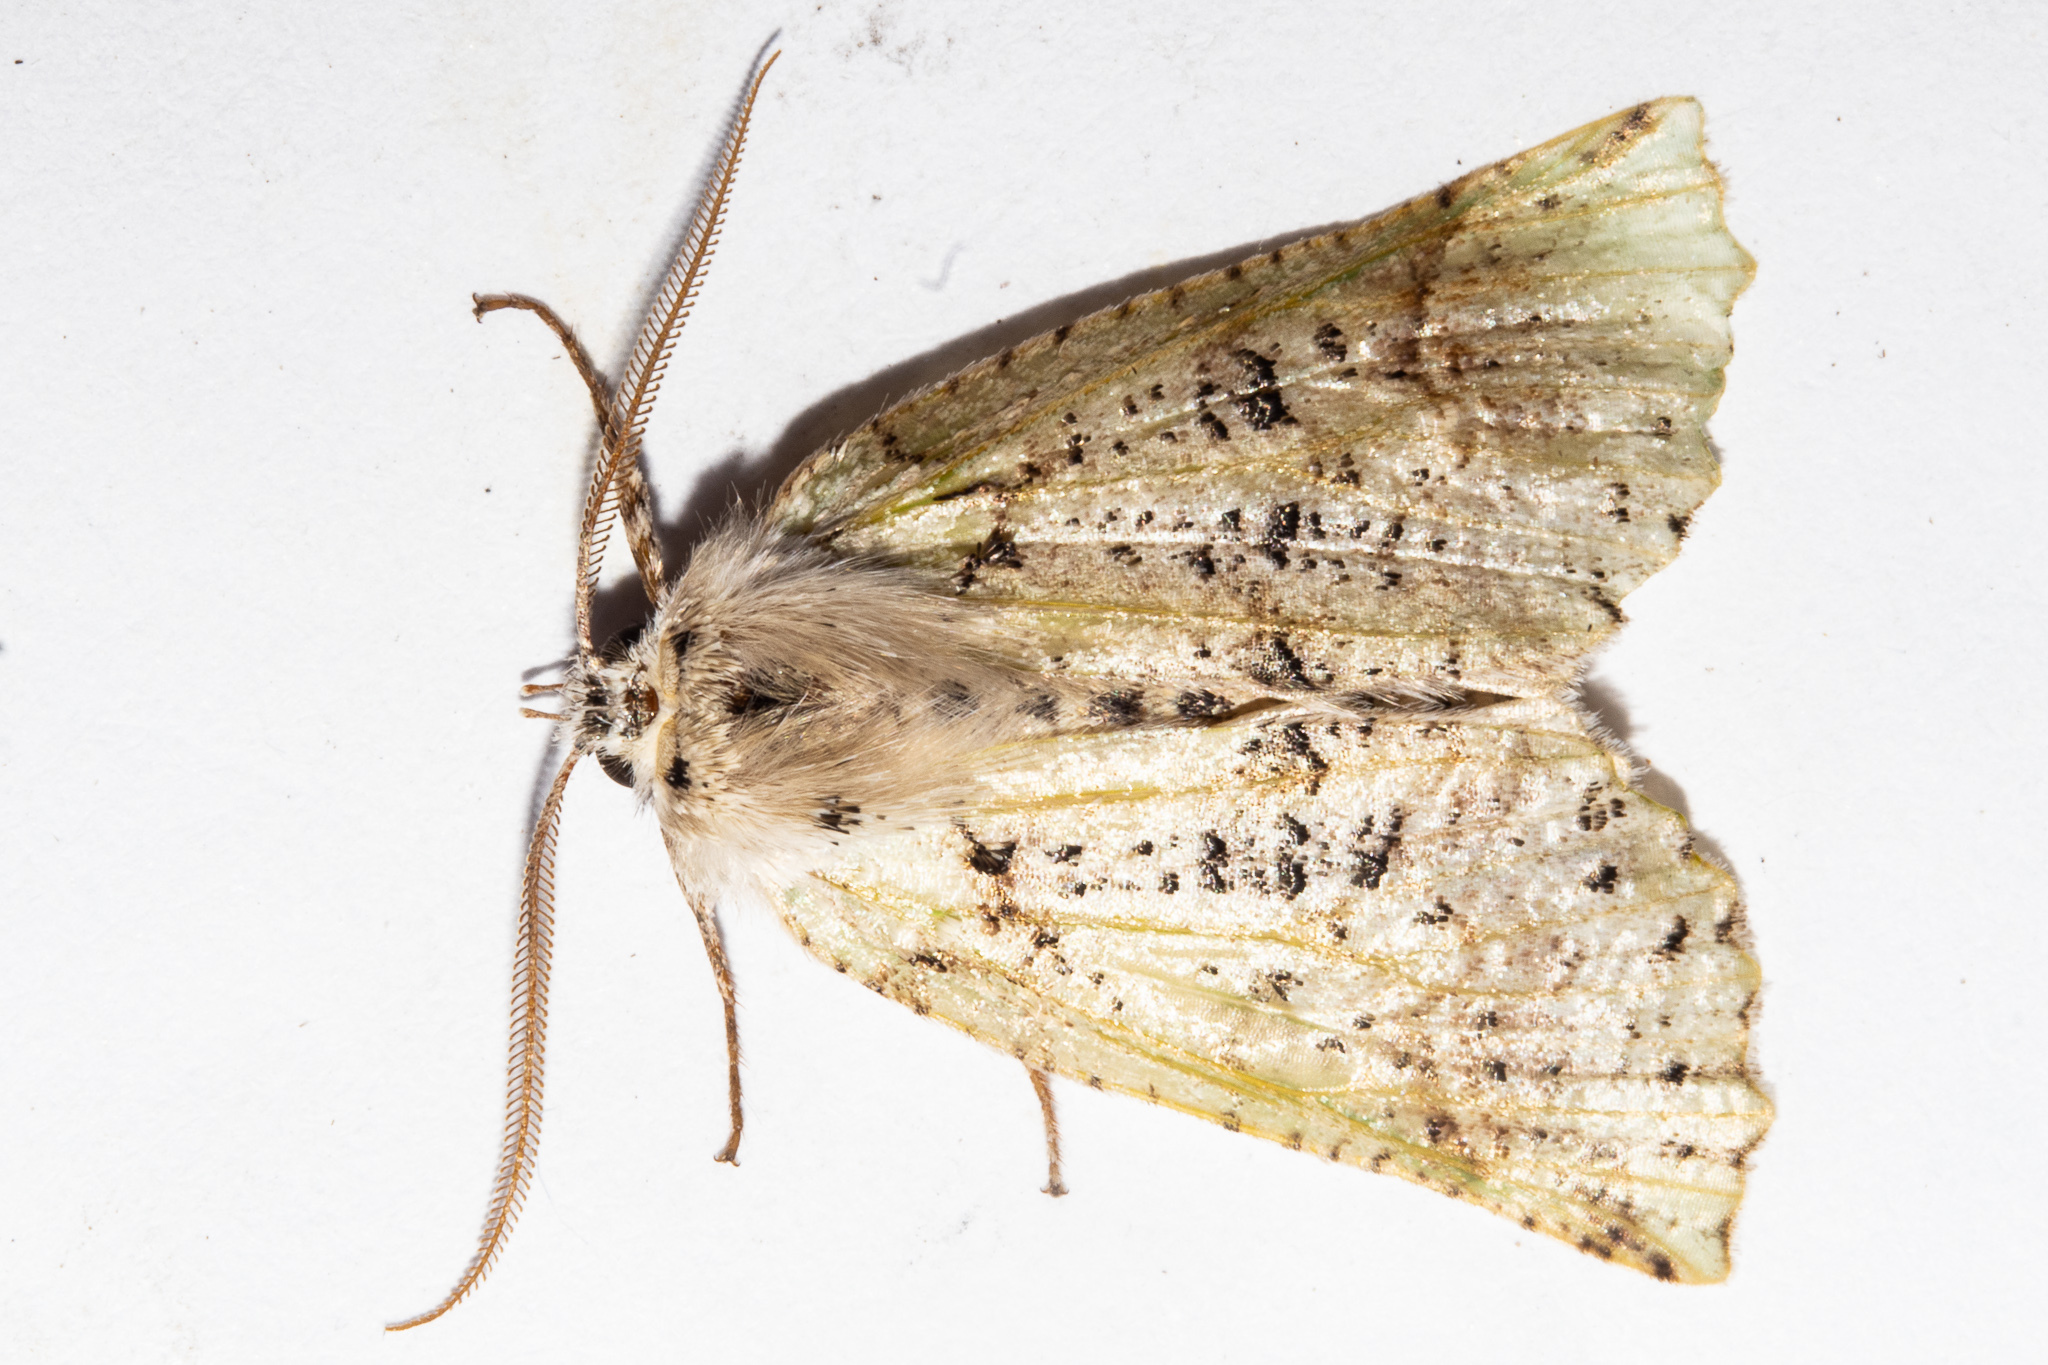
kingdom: Animalia
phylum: Arthropoda
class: Insecta
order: Lepidoptera
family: Geometridae
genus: Declana
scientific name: Declana floccosa
